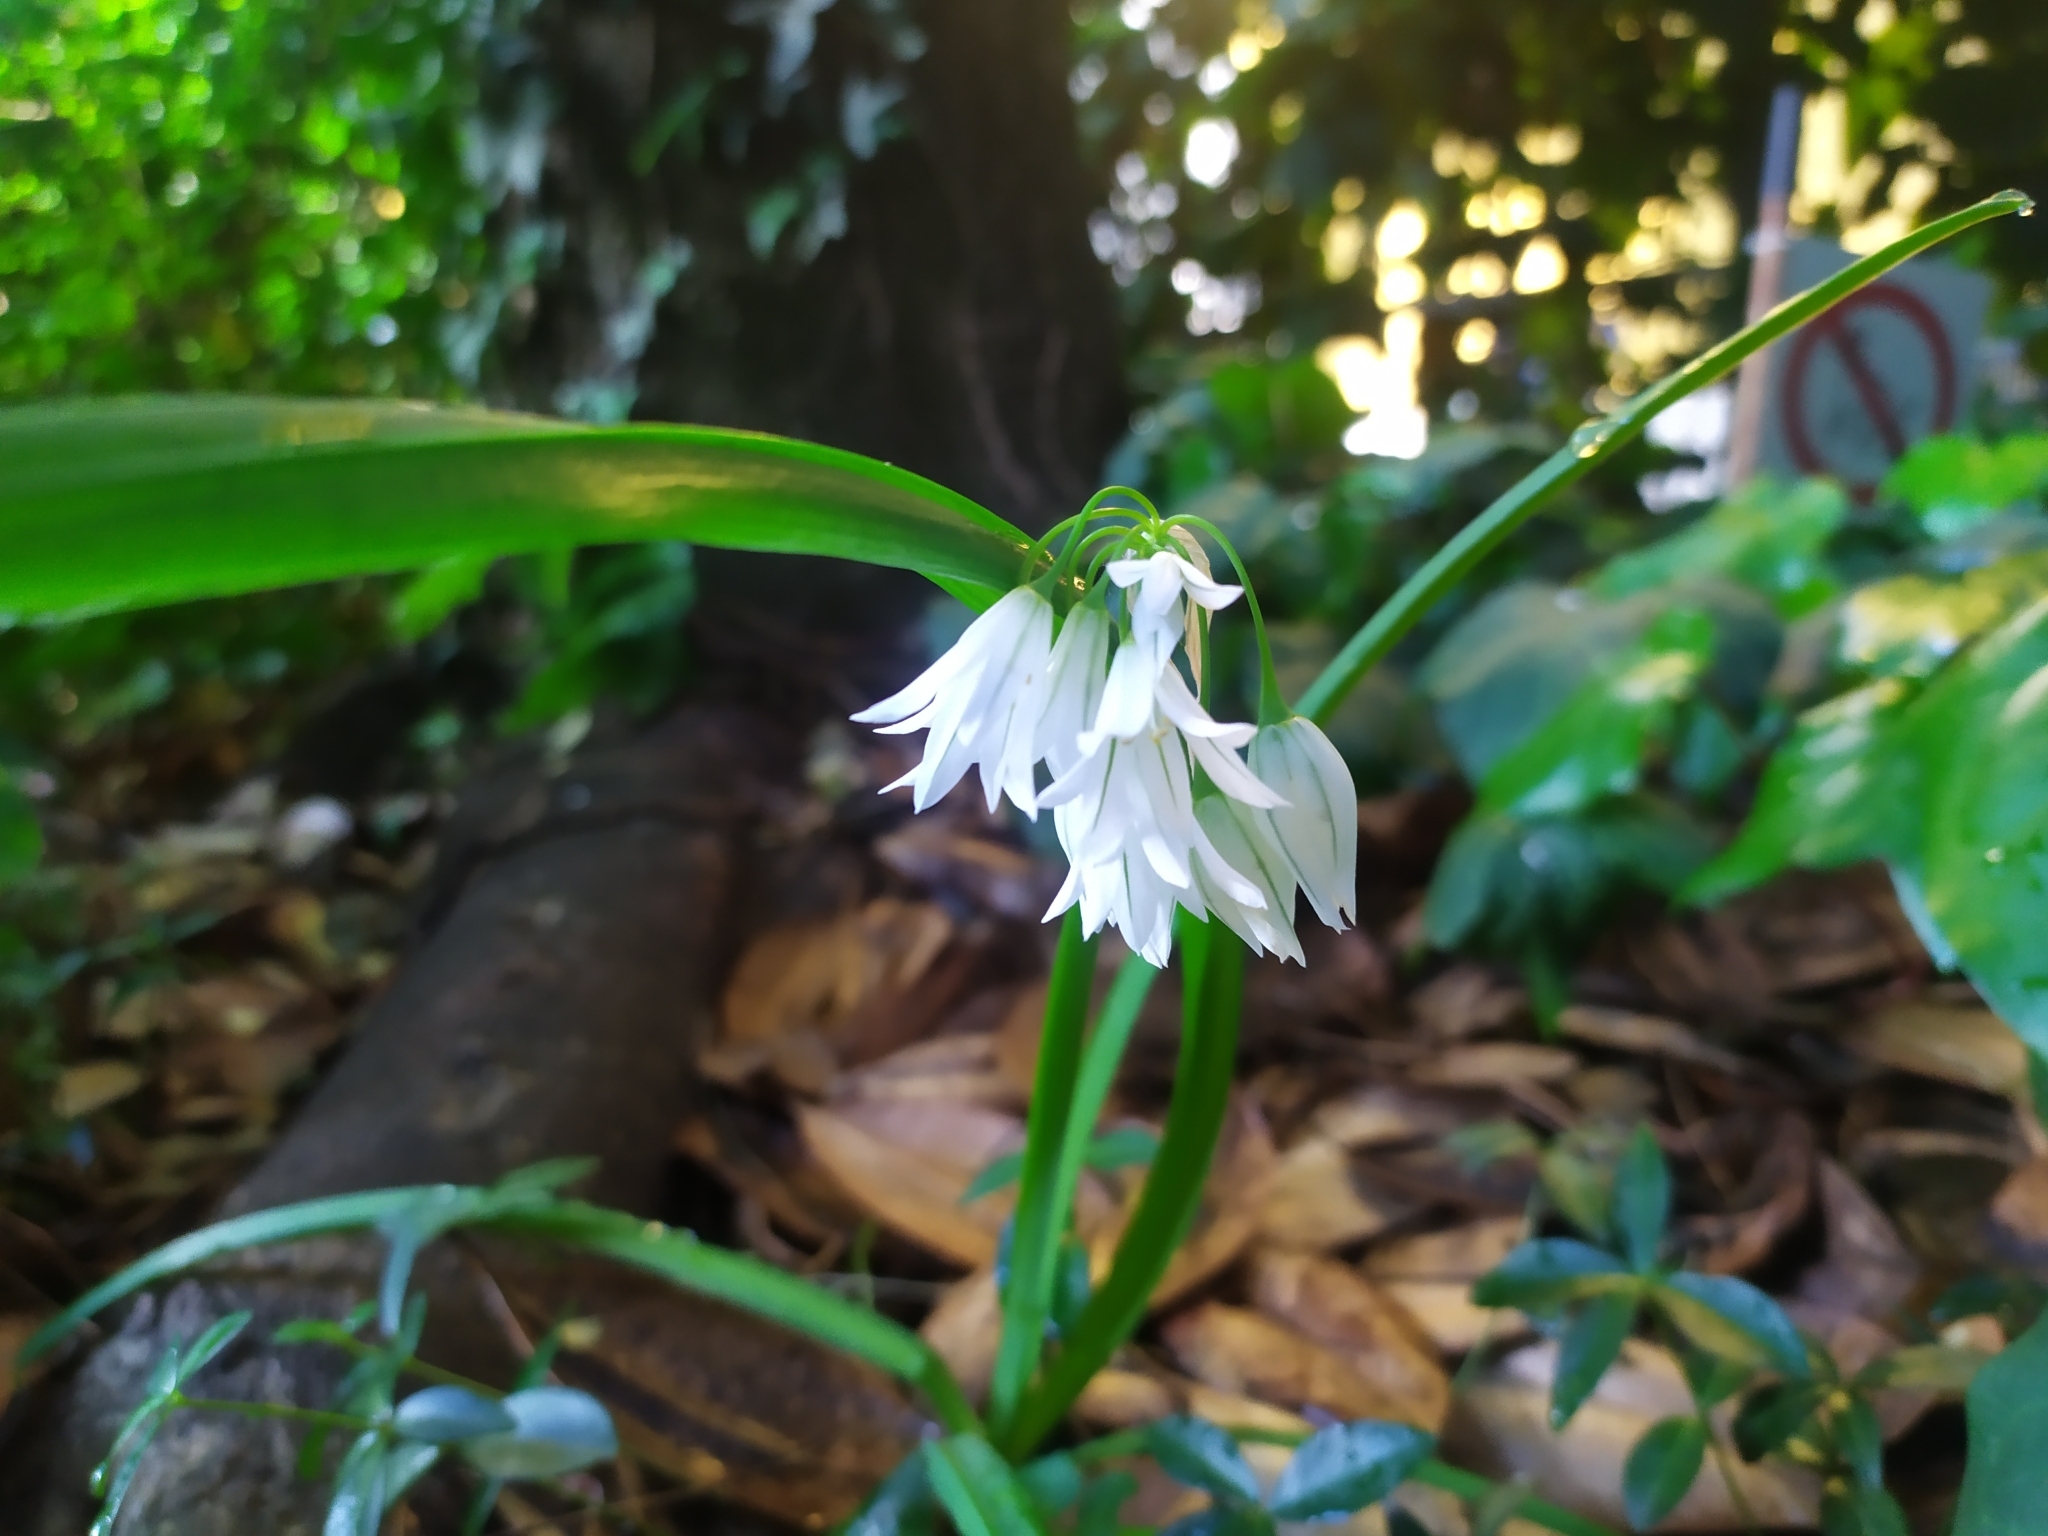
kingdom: Plantae
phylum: Tracheophyta
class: Liliopsida
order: Asparagales
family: Amaryllidaceae
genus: Allium
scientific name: Allium triquetrum
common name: Three-cornered garlic
